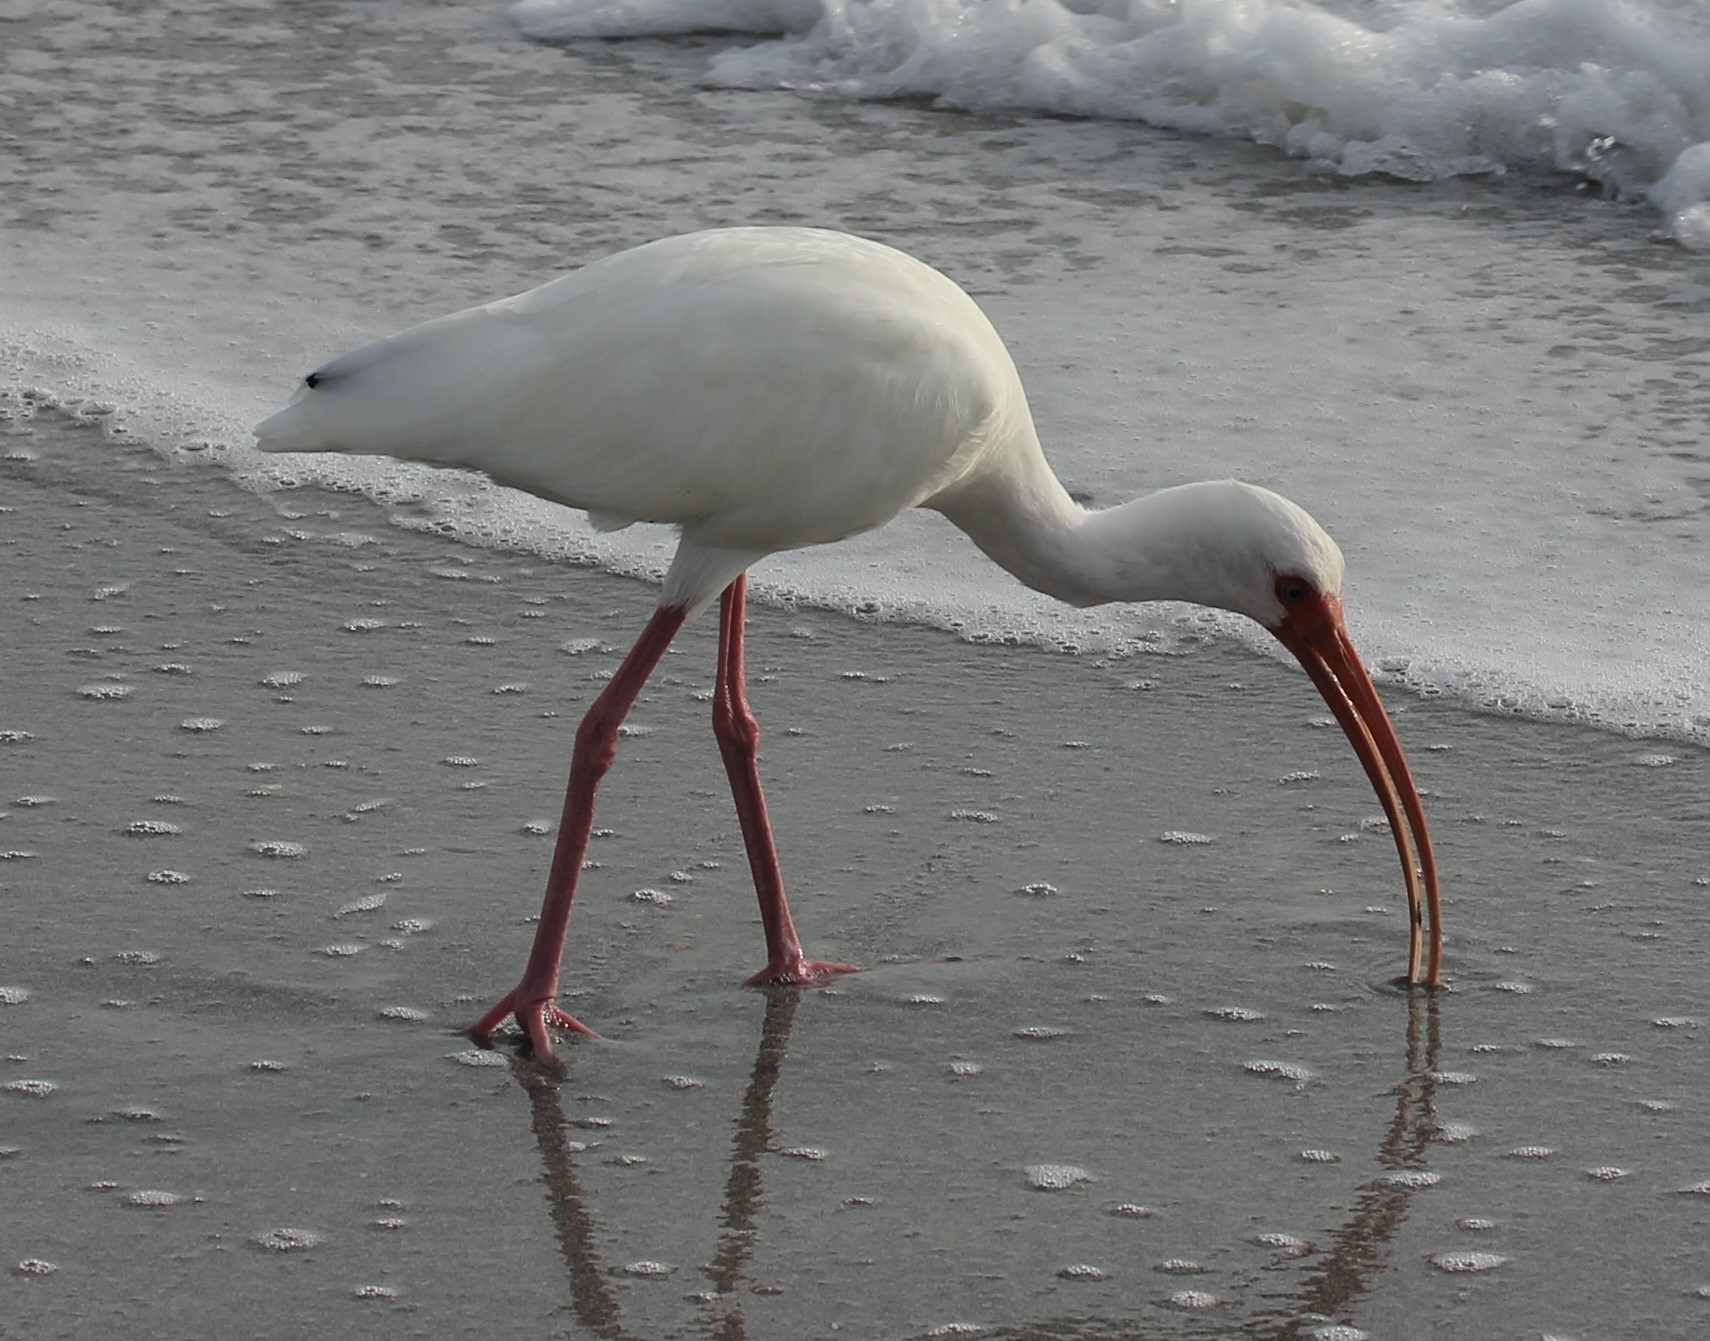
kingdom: Animalia
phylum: Chordata
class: Aves
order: Pelecaniformes
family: Threskiornithidae
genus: Eudocimus
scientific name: Eudocimus albus
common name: White ibis
